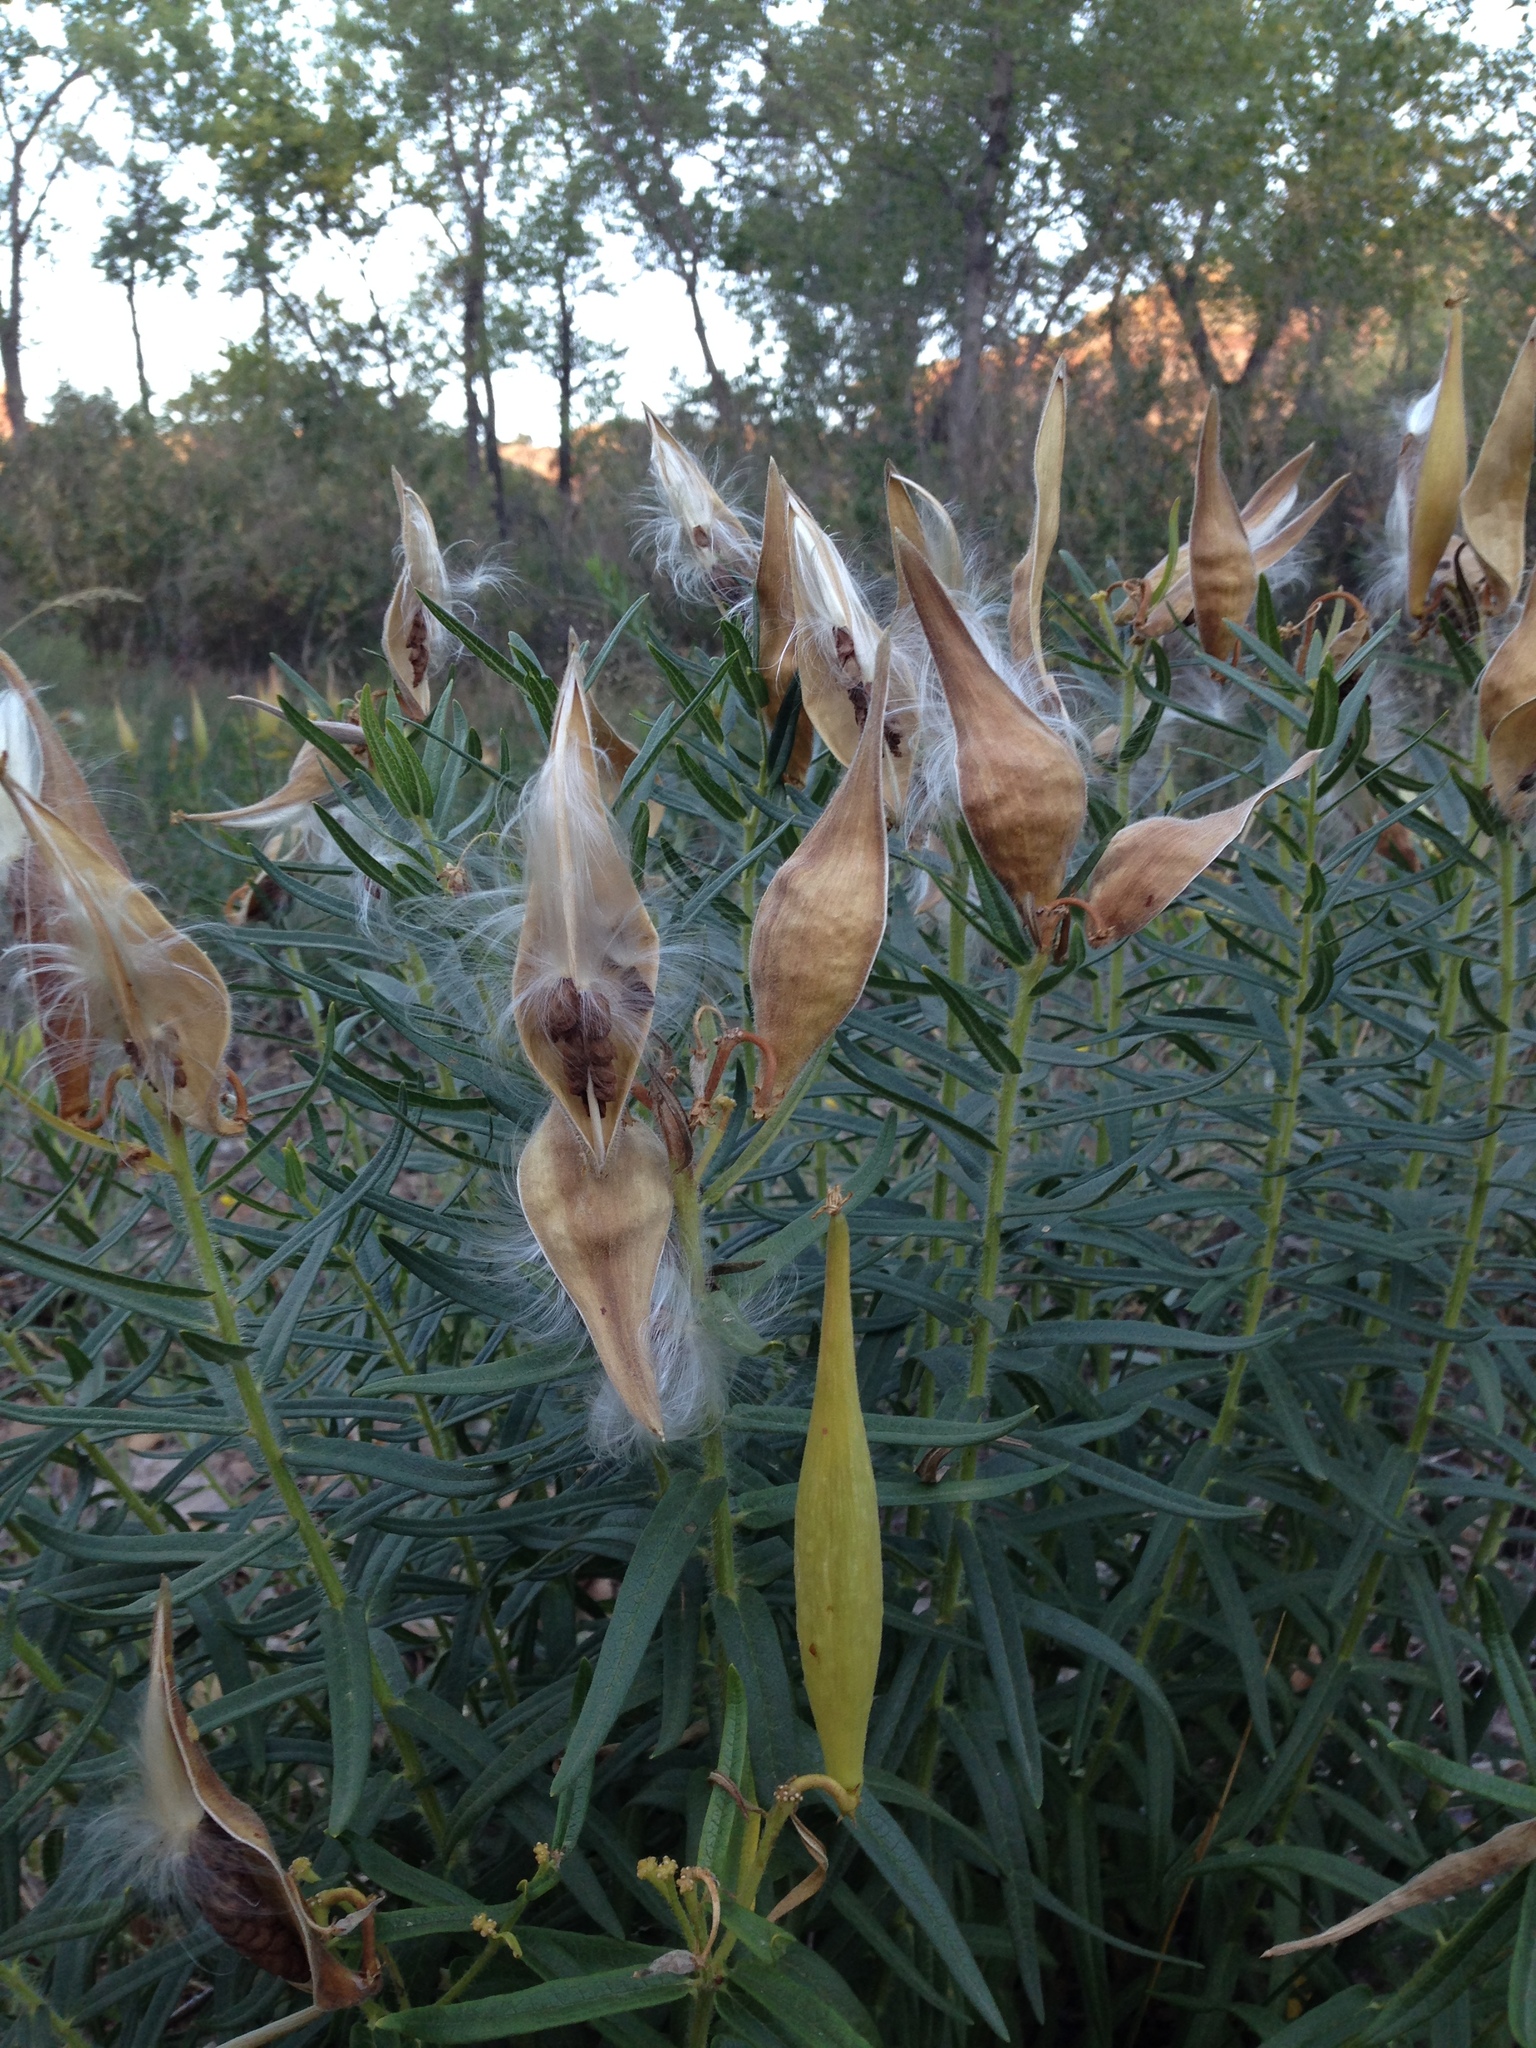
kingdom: Plantae
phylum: Tracheophyta
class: Magnoliopsida
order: Gentianales
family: Apocynaceae
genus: Asclepias
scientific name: Asclepias tuberosa
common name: Butterfly milkweed
